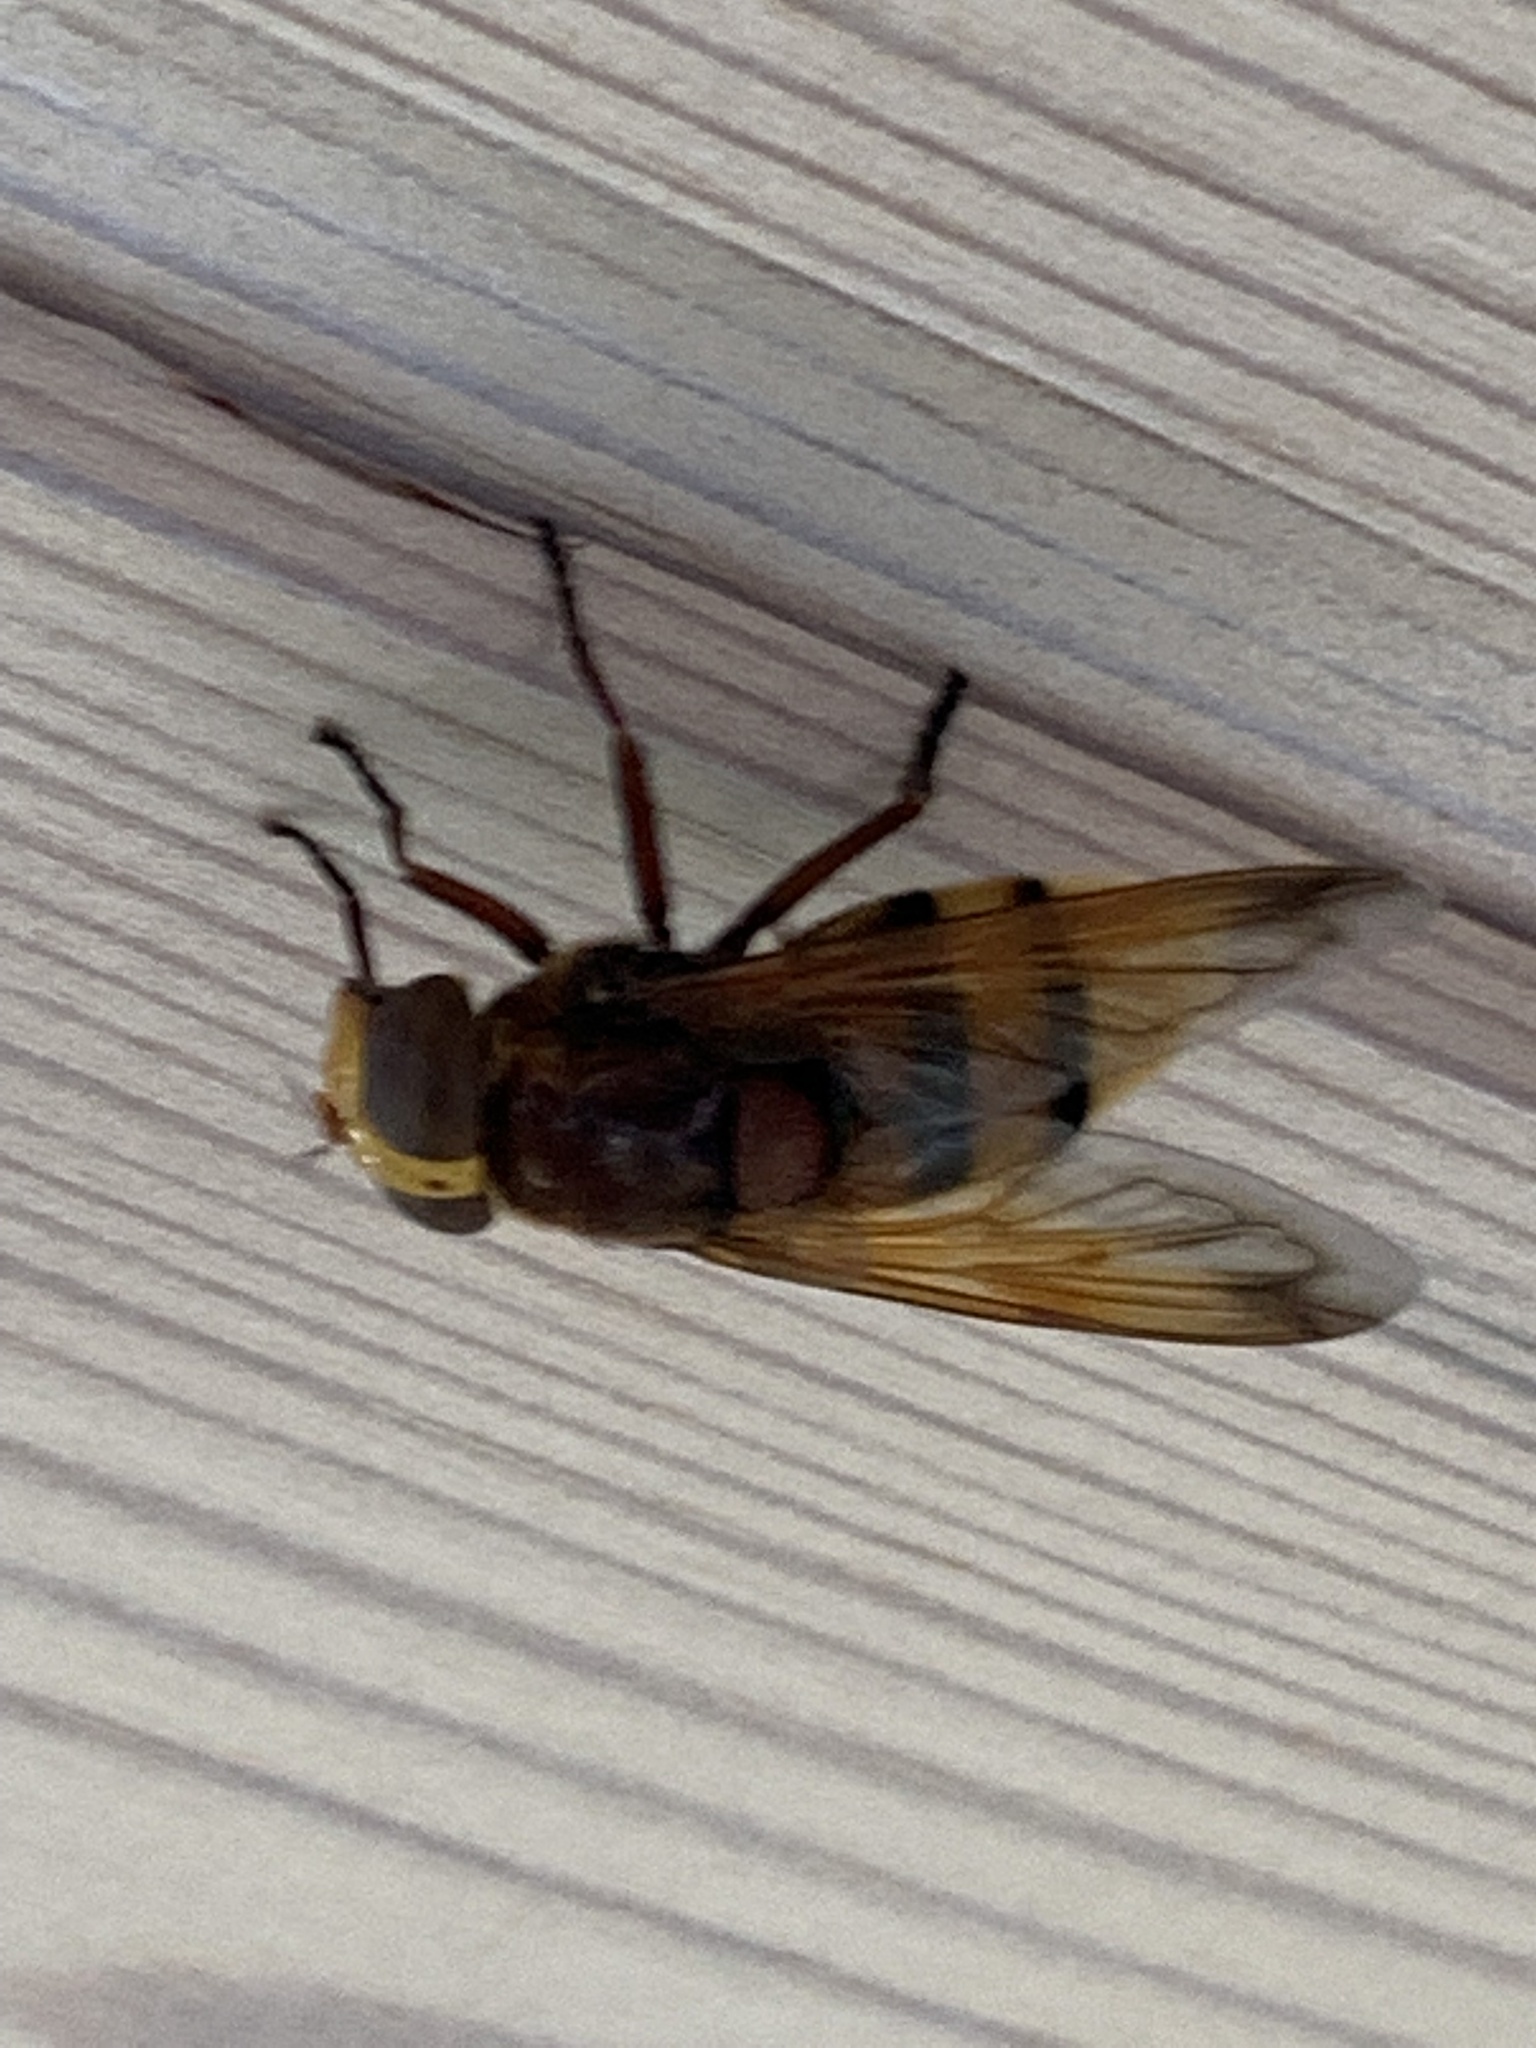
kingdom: Animalia
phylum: Arthropoda
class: Insecta
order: Diptera
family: Syrphidae
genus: Volucella
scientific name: Volucella zonaria
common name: Hornet hoverfly
